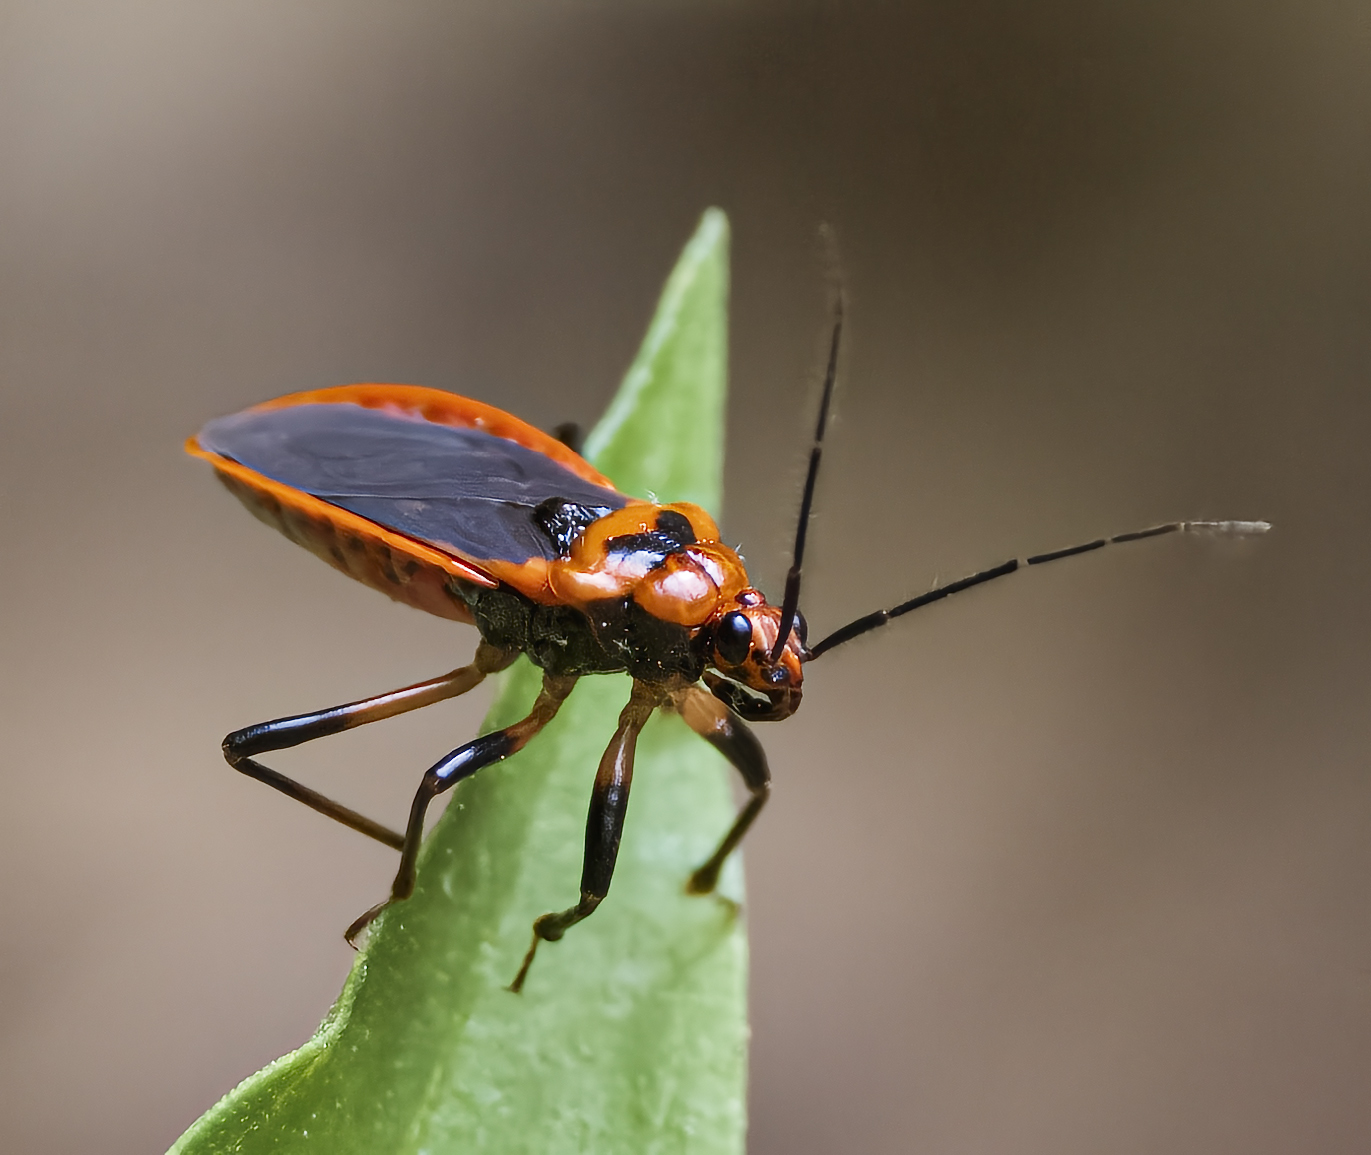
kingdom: Animalia
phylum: Arthropoda
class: Insecta
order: Hemiptera
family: Reduviidae
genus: Rhiginia
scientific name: Rhiginia cruciata
